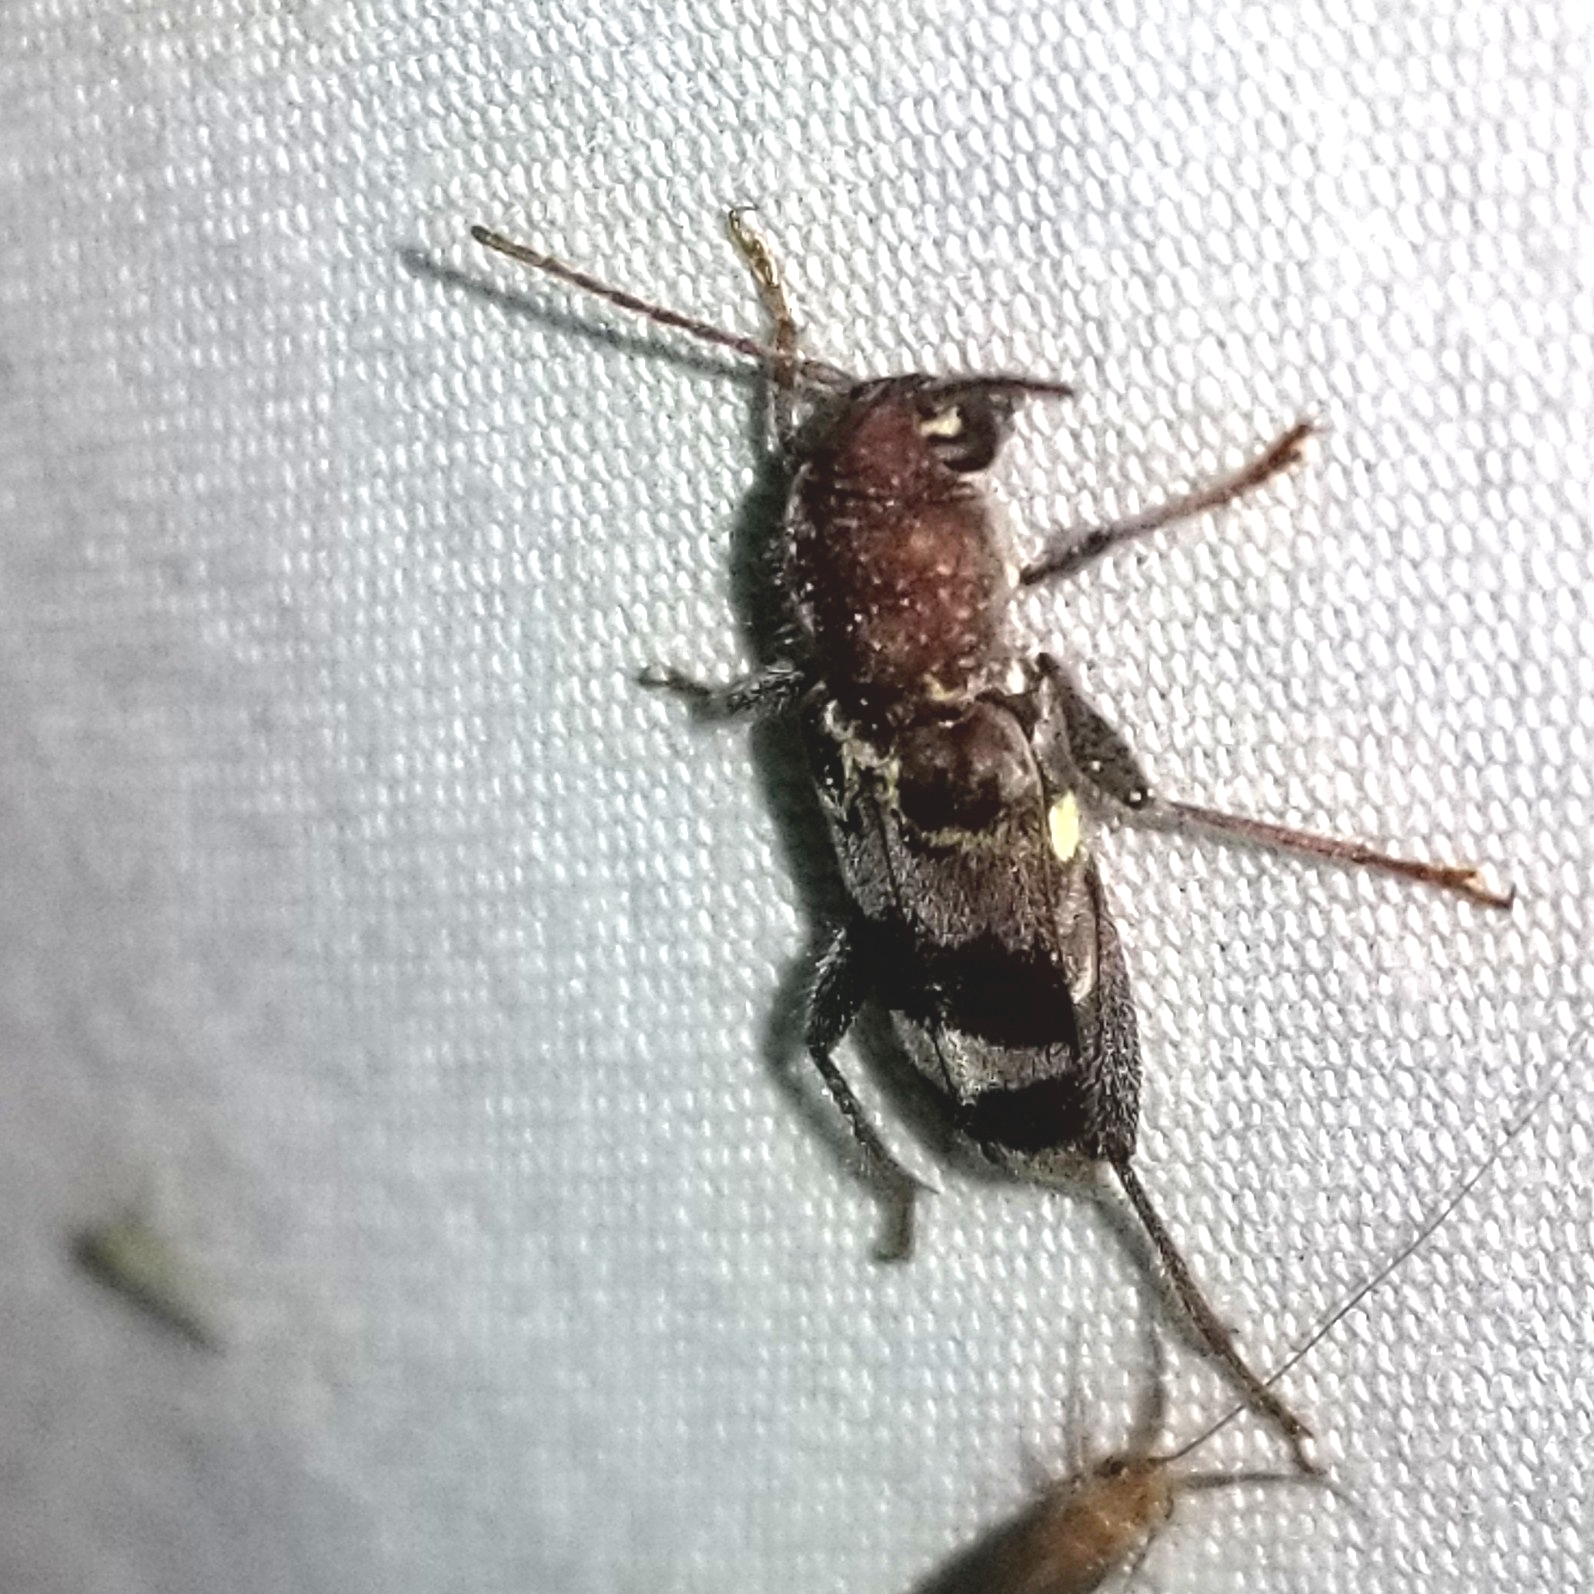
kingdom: Animalia
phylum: Arthropoda
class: Insecta
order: Coleoptera
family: Cerambycidae
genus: Xylotrechus
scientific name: Xylotrechus colonus
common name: Long-horned beetle
